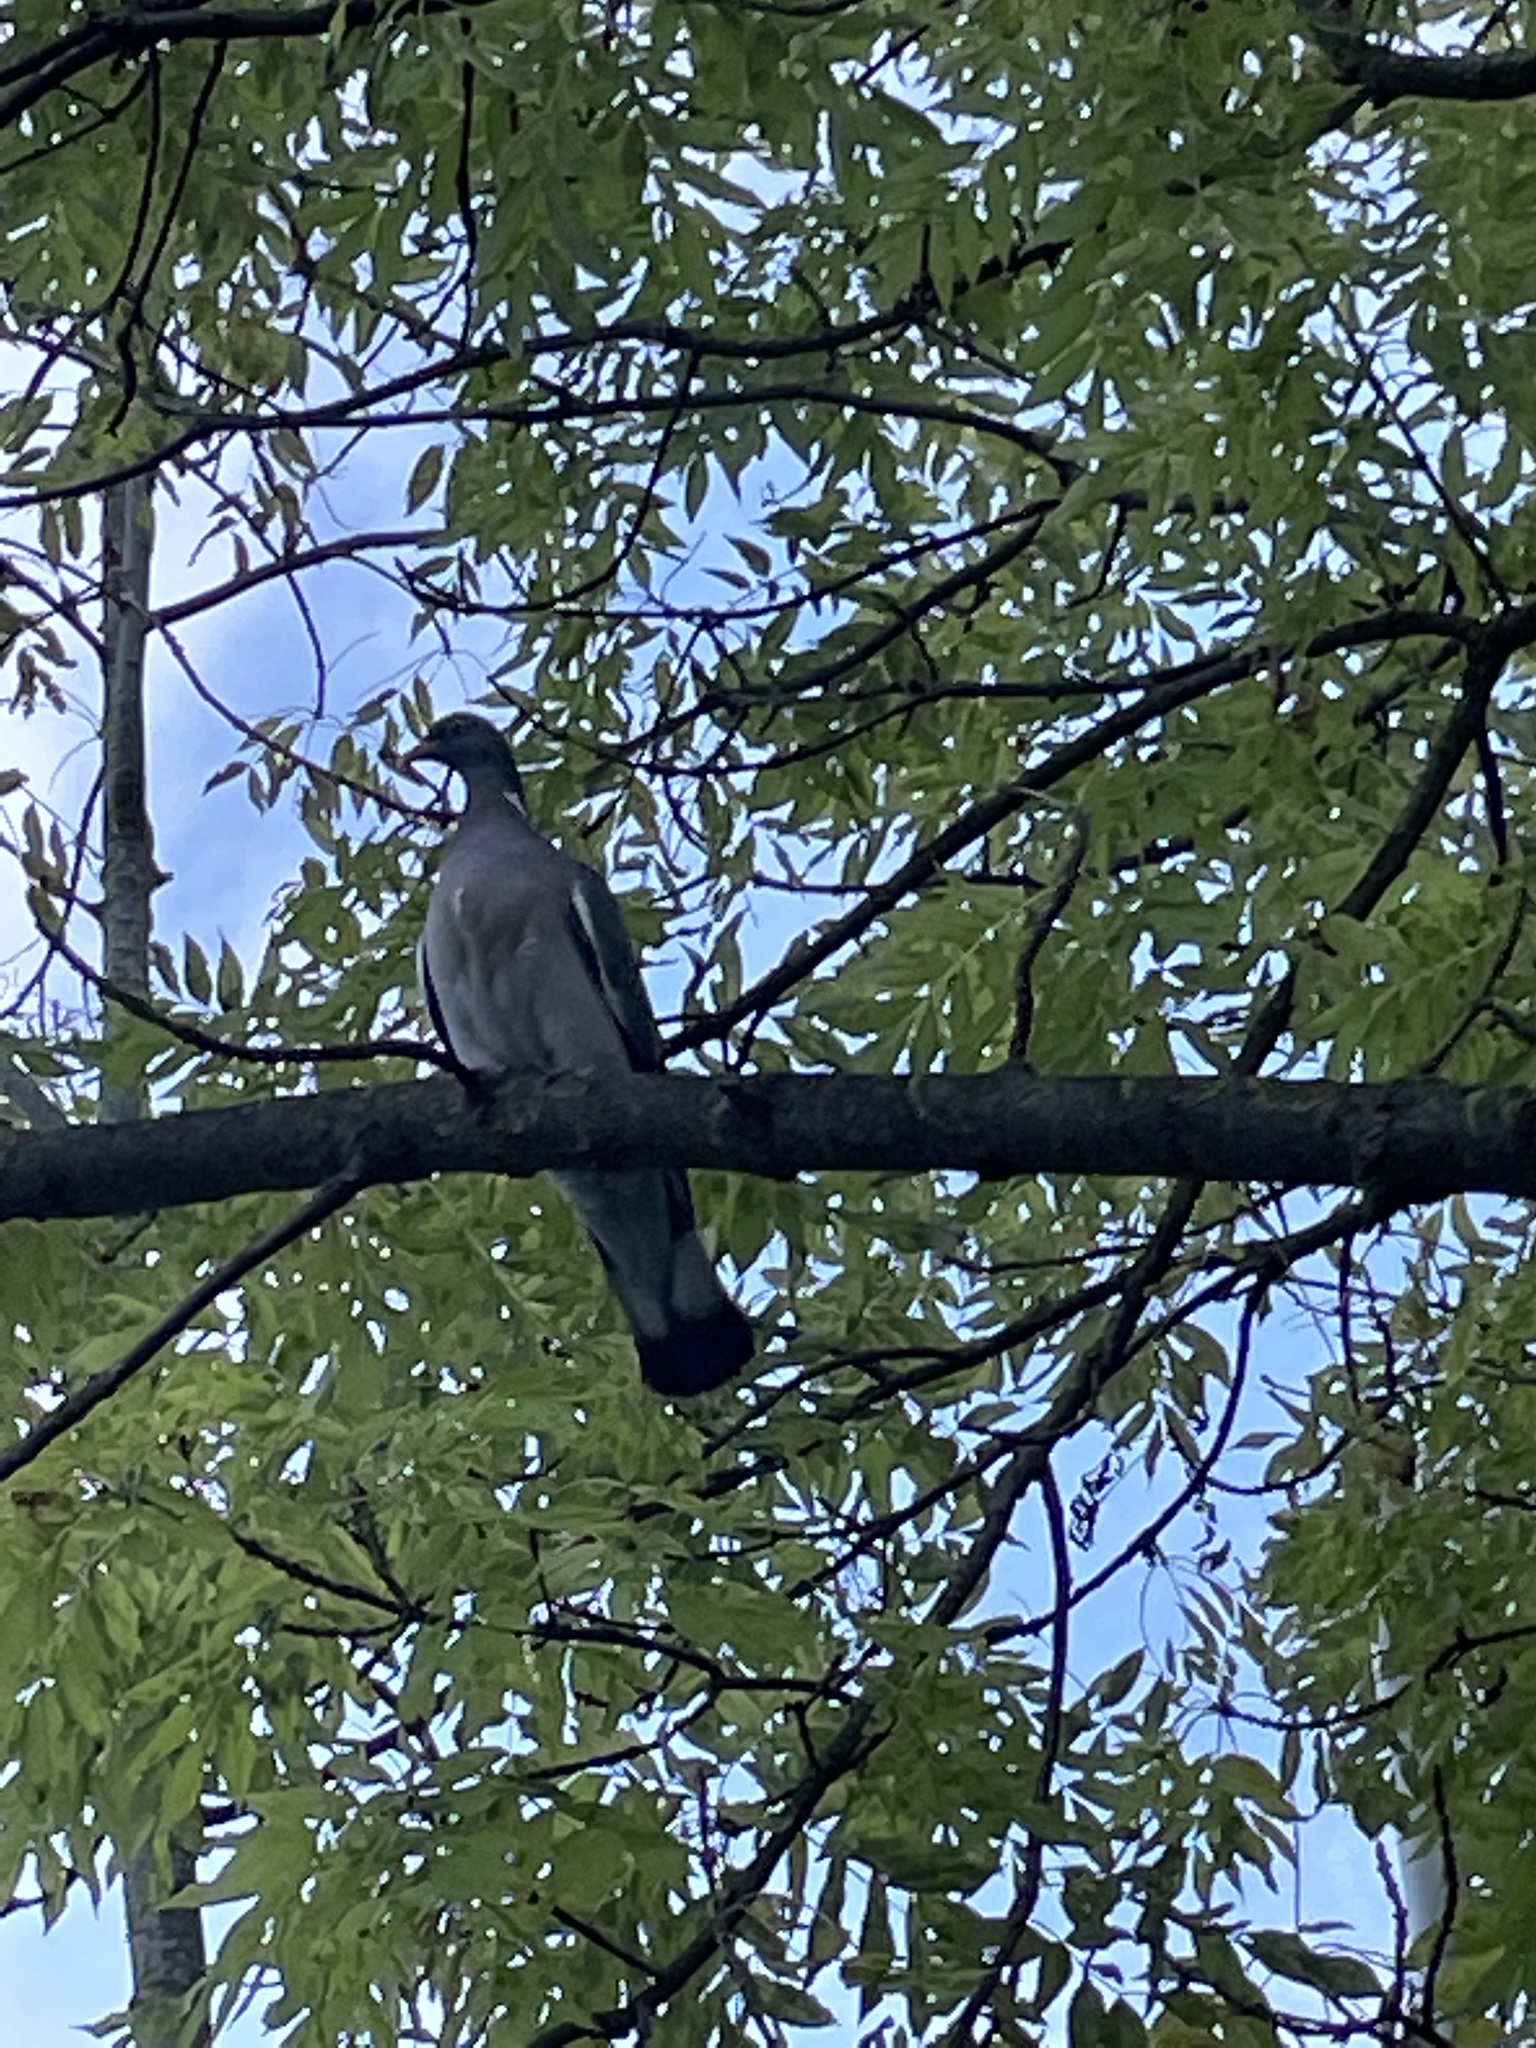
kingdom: Animalia
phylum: Chordata
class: Aves
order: Columbiformes
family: Columbidae
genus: Columba
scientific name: Columba palumbus
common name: Common wood pigeon
